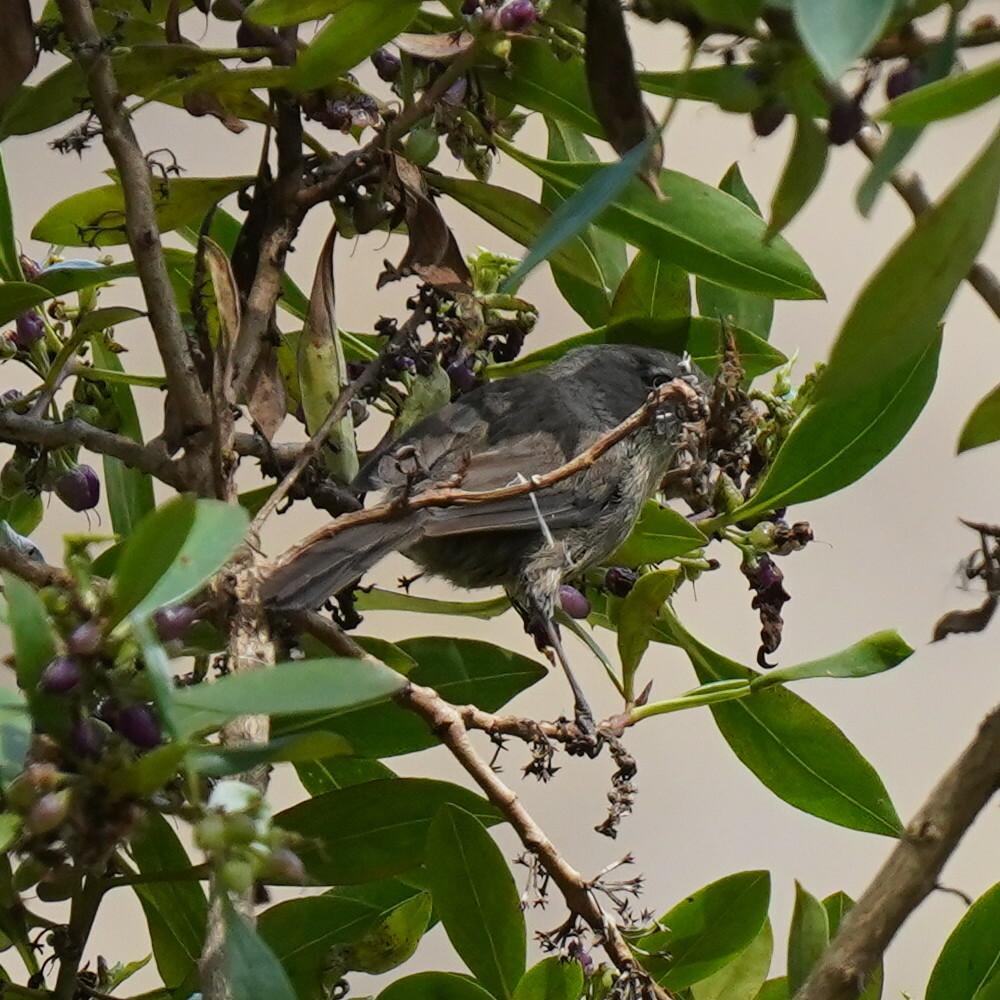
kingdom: Animalia
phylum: Chordata
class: Aves
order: Passeriformes
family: Sylviidae
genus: Chamaea
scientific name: Chamaea fasciata
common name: Wrentit
